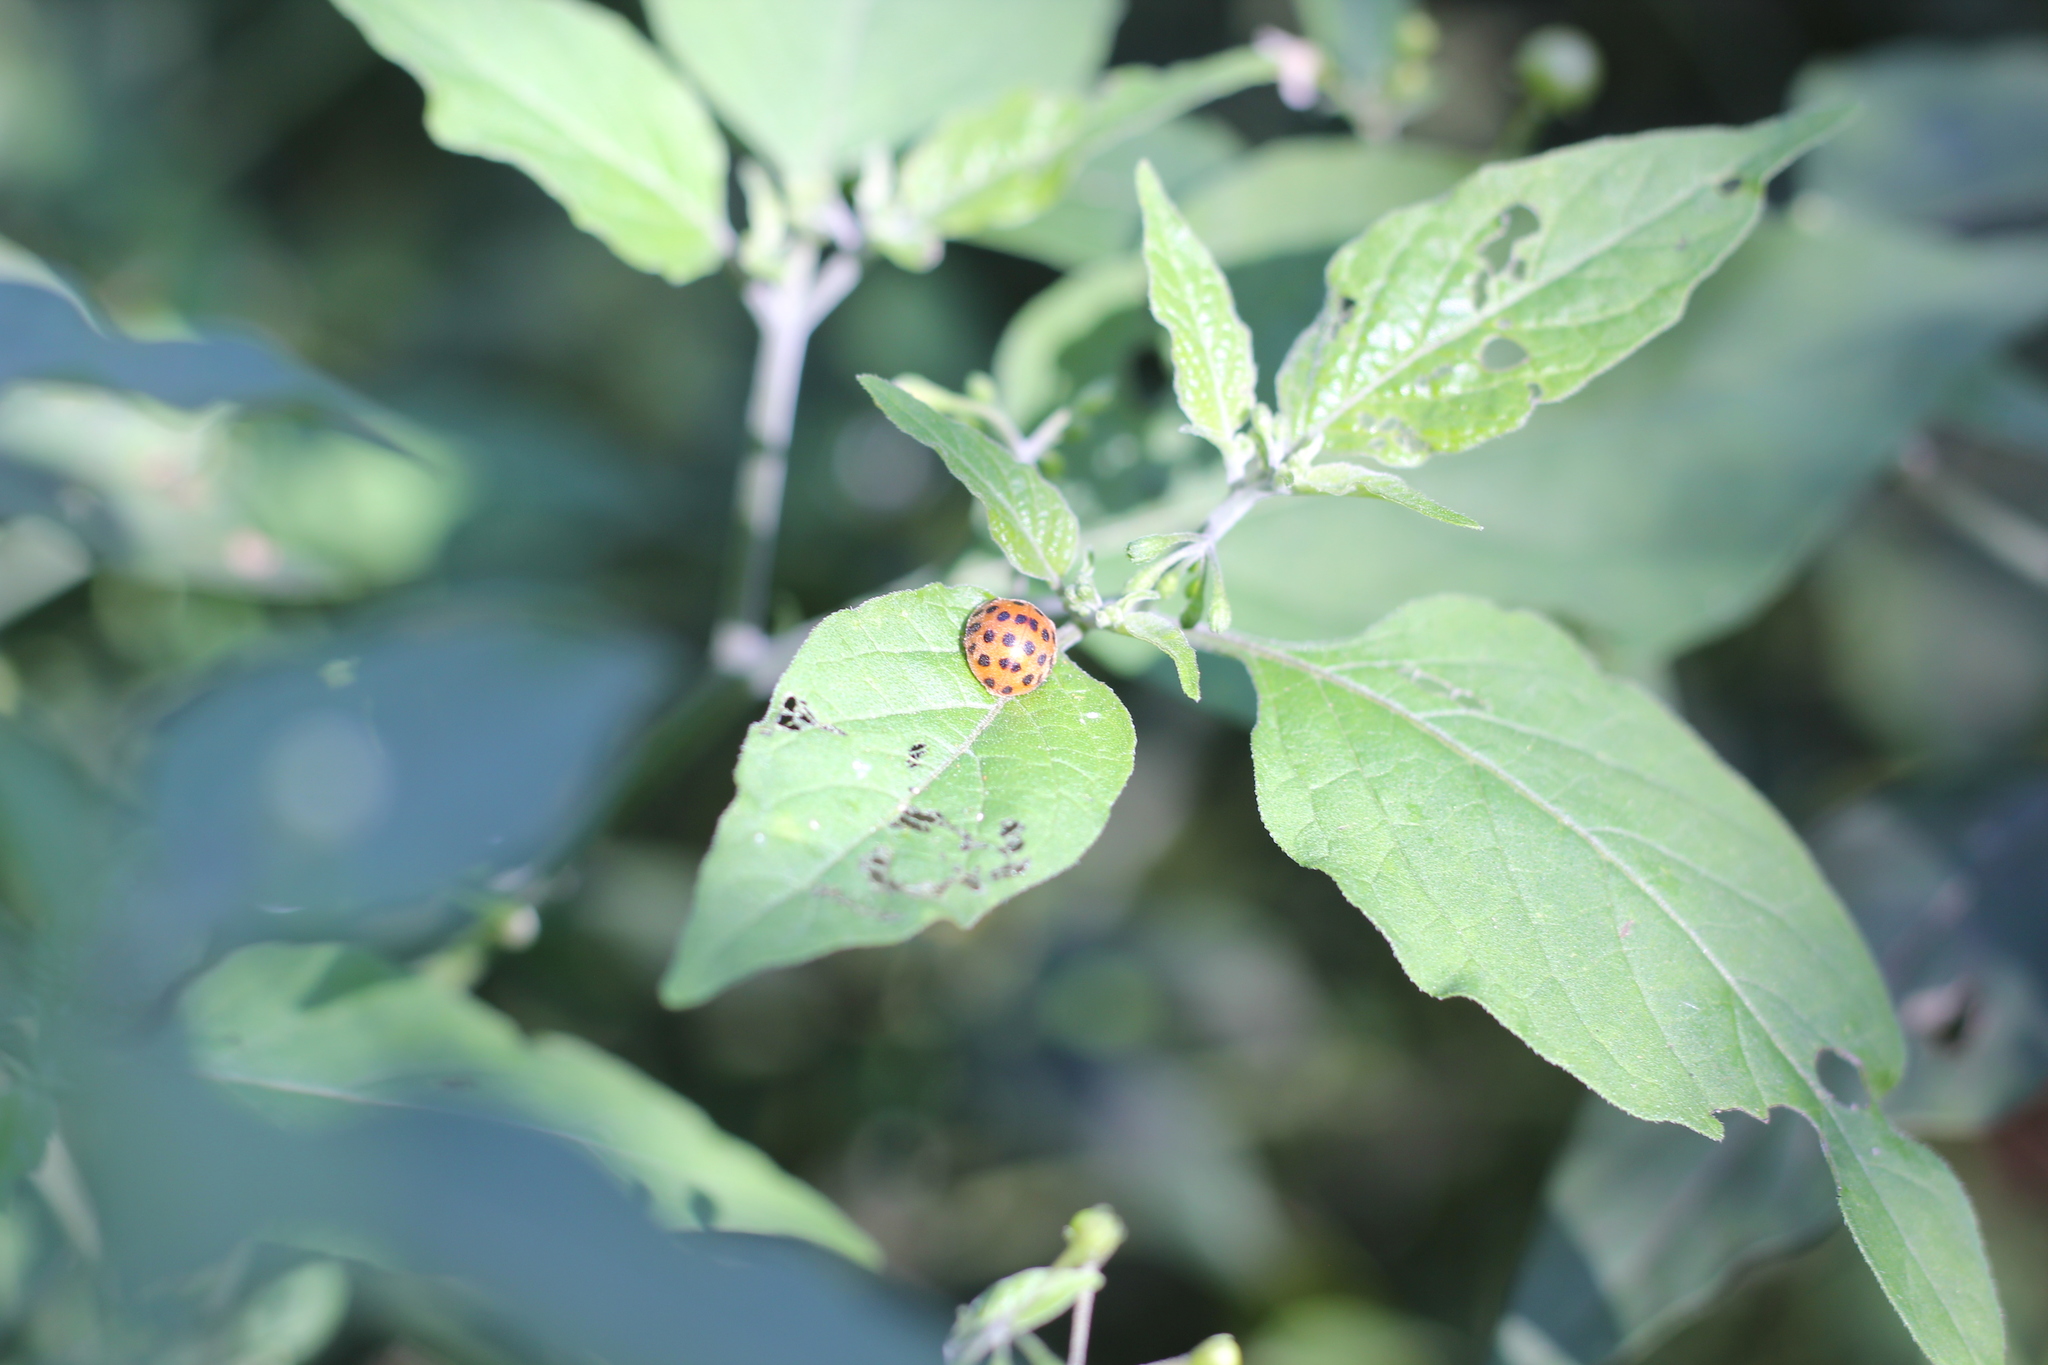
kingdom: Animalia
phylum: Arthropoda
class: Insecta
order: Coleoptera
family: Coccinellidae
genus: Henosepilachna
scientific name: Henosepilachna vigintioctopunctata
